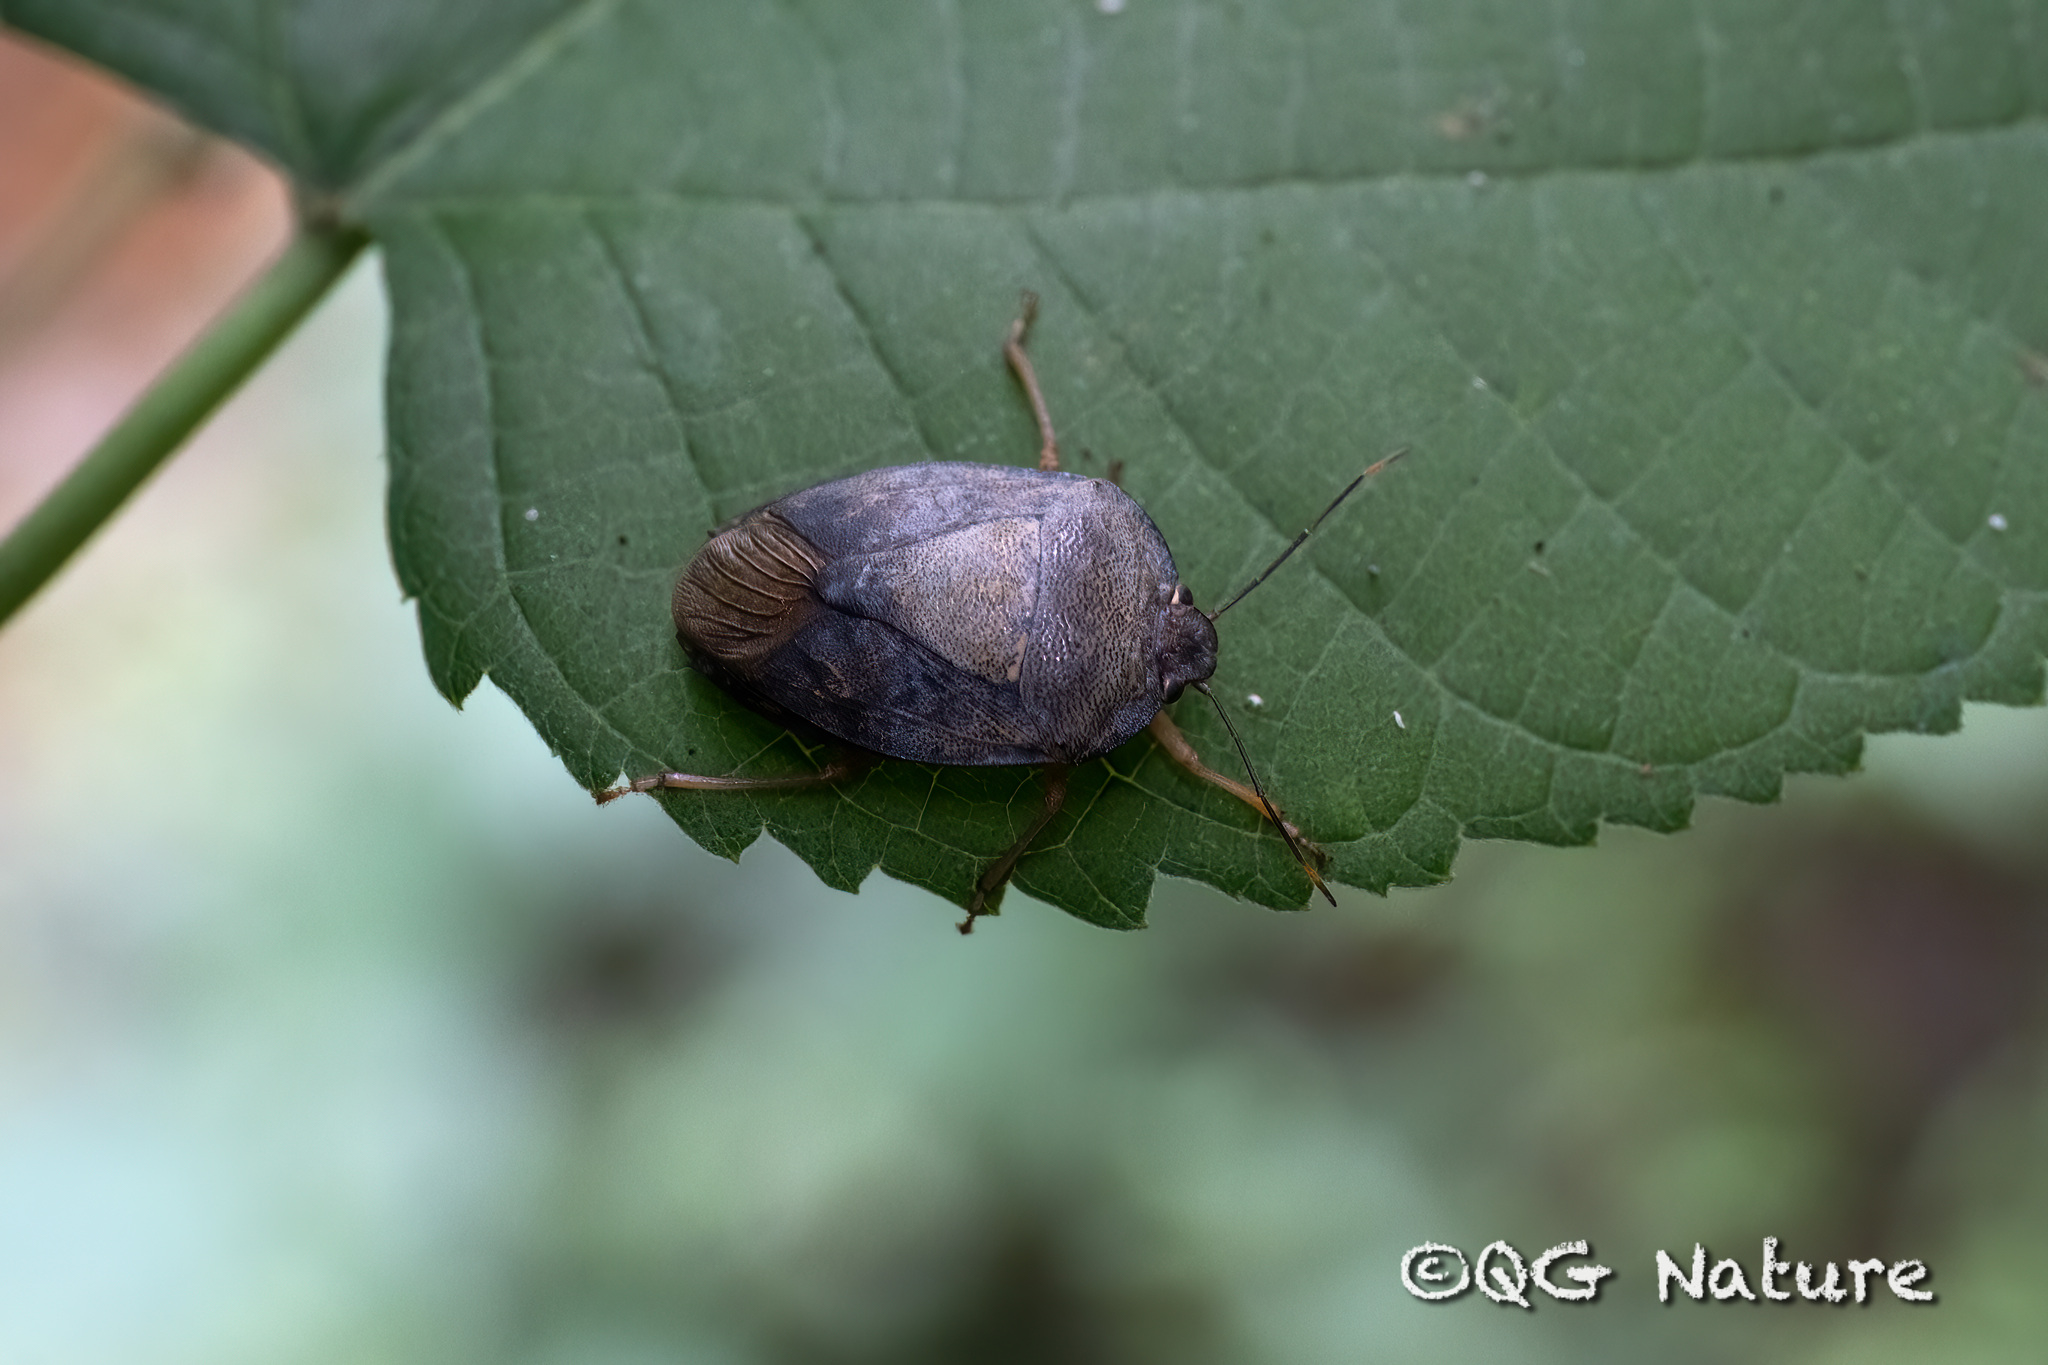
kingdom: Animalia
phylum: Arthropoda
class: Insecta
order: Hemiptera
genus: Hippotiscus
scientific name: Hippotiscus
